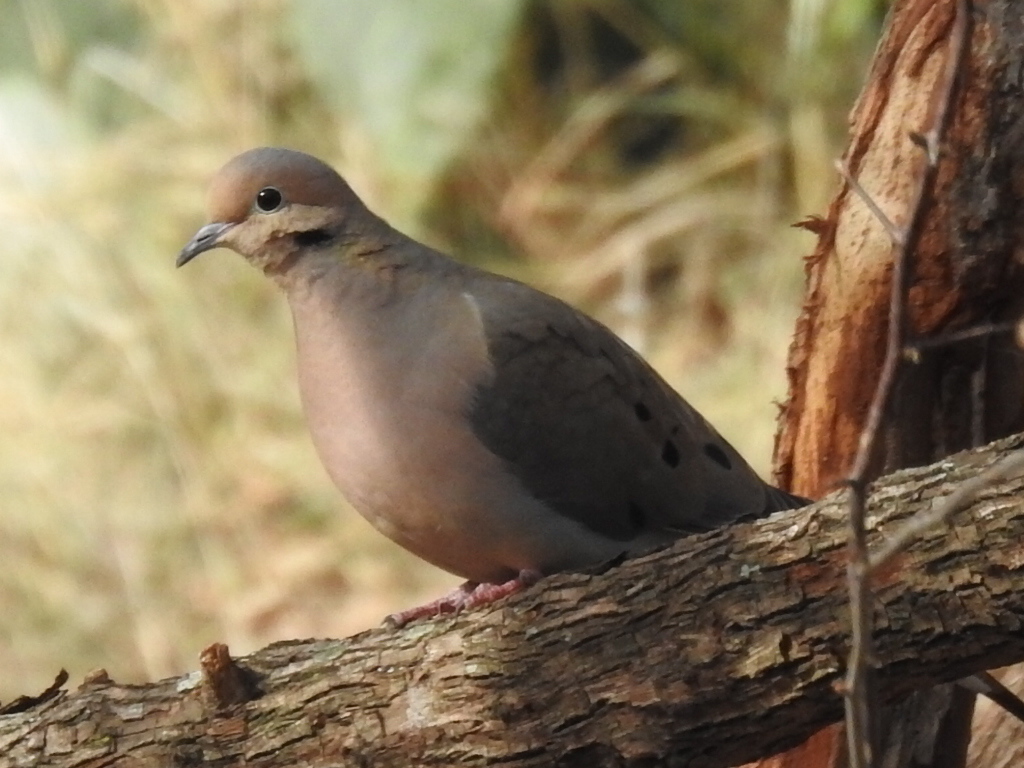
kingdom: Animalia
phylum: Chordata
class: Aves
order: Columbiformes
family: Columbidae
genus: Zenaida
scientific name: Zenaida macroura
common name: Mourning dove
